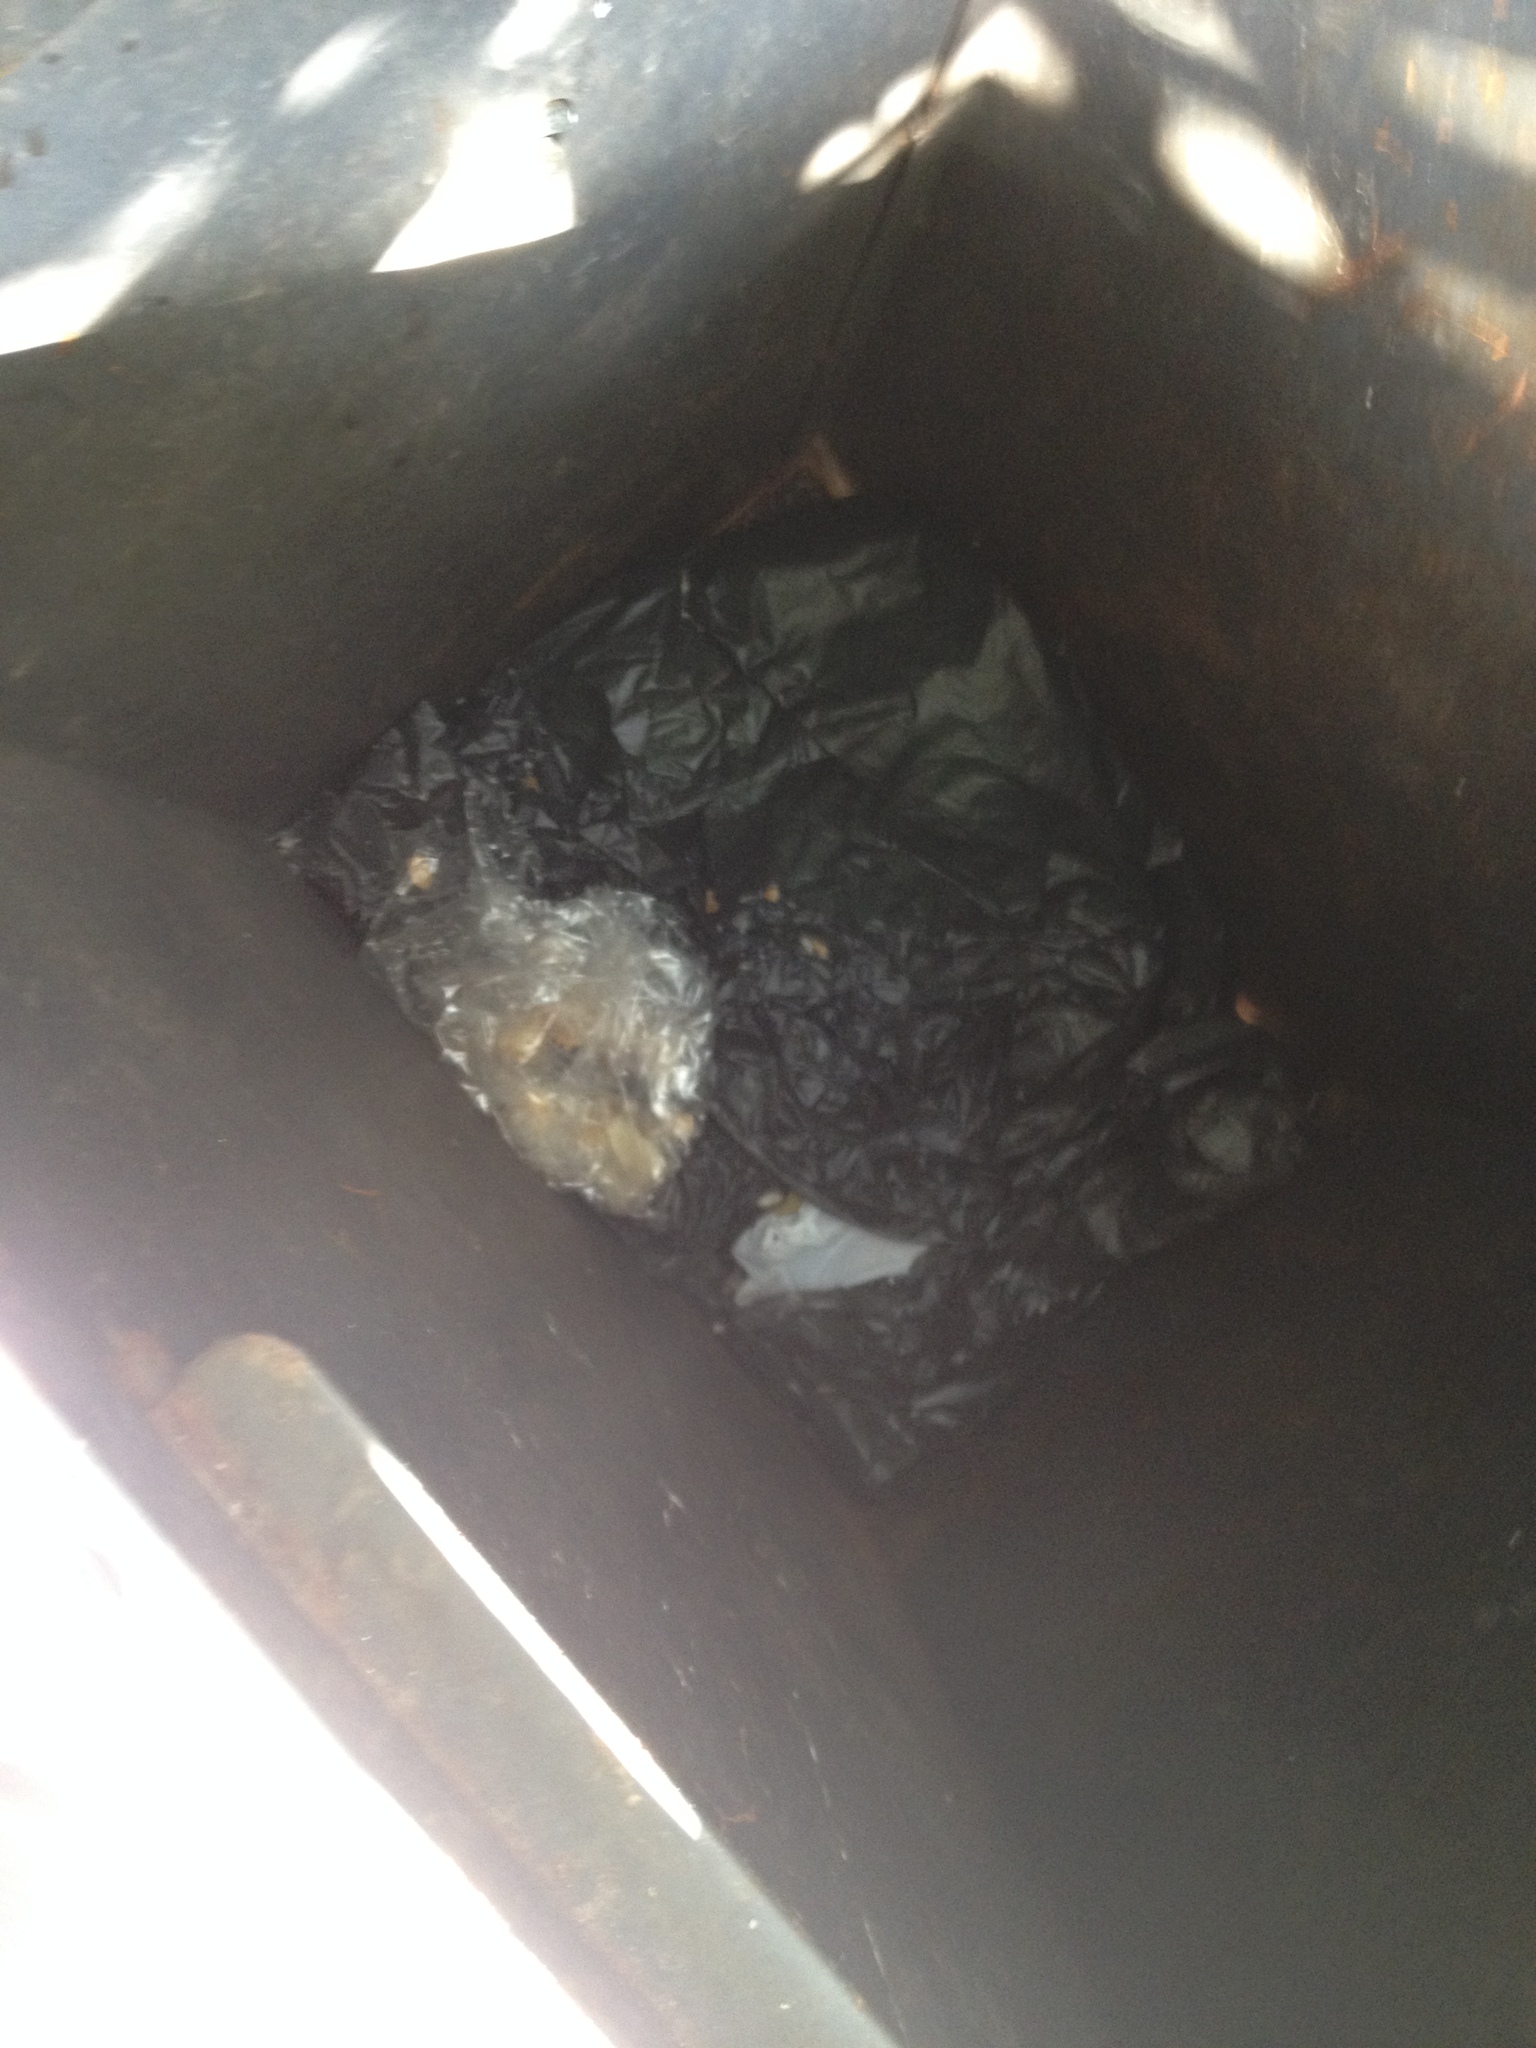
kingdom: Animalia
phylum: Chordata
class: Mammalia
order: Didelphimorphia
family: Didelphidae
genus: Didelphis
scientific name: Didelphis virginiana
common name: Virginia opossum
